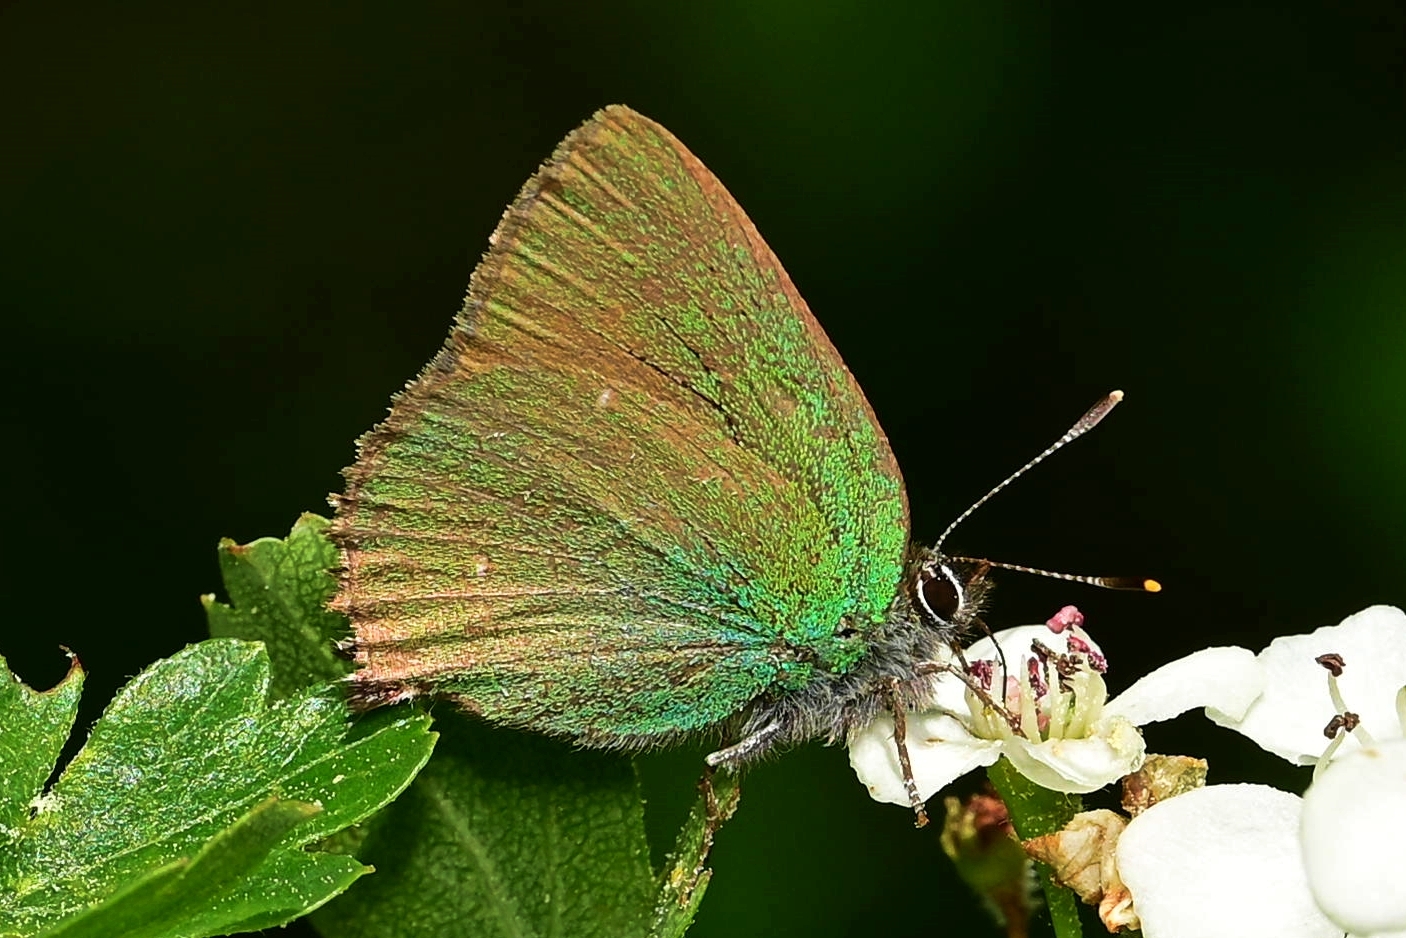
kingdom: Animalia
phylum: Arthropoda
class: Insecta
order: Lepidoptera
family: Lycaenidae
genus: Callophrys
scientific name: Callophrys rubi
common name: Green hairstreak
